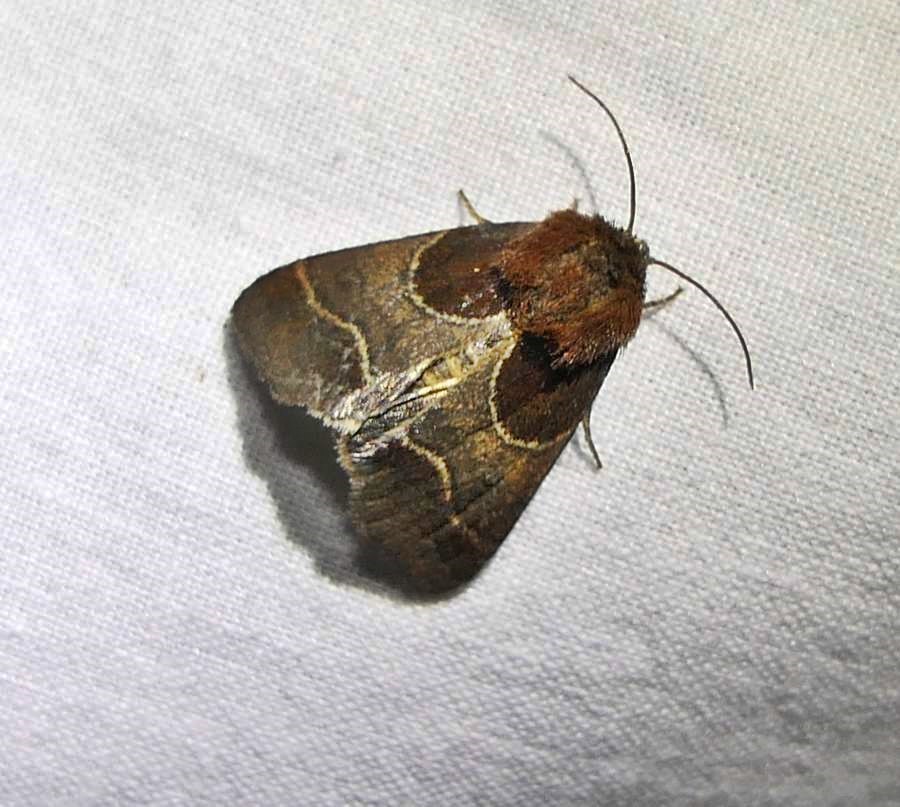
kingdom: Animalia
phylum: Arthropoda
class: Insecta
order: Lepidoptera
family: Noctuidae
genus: Schinia
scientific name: Schinia arcigera
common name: Arcigera flower moth
